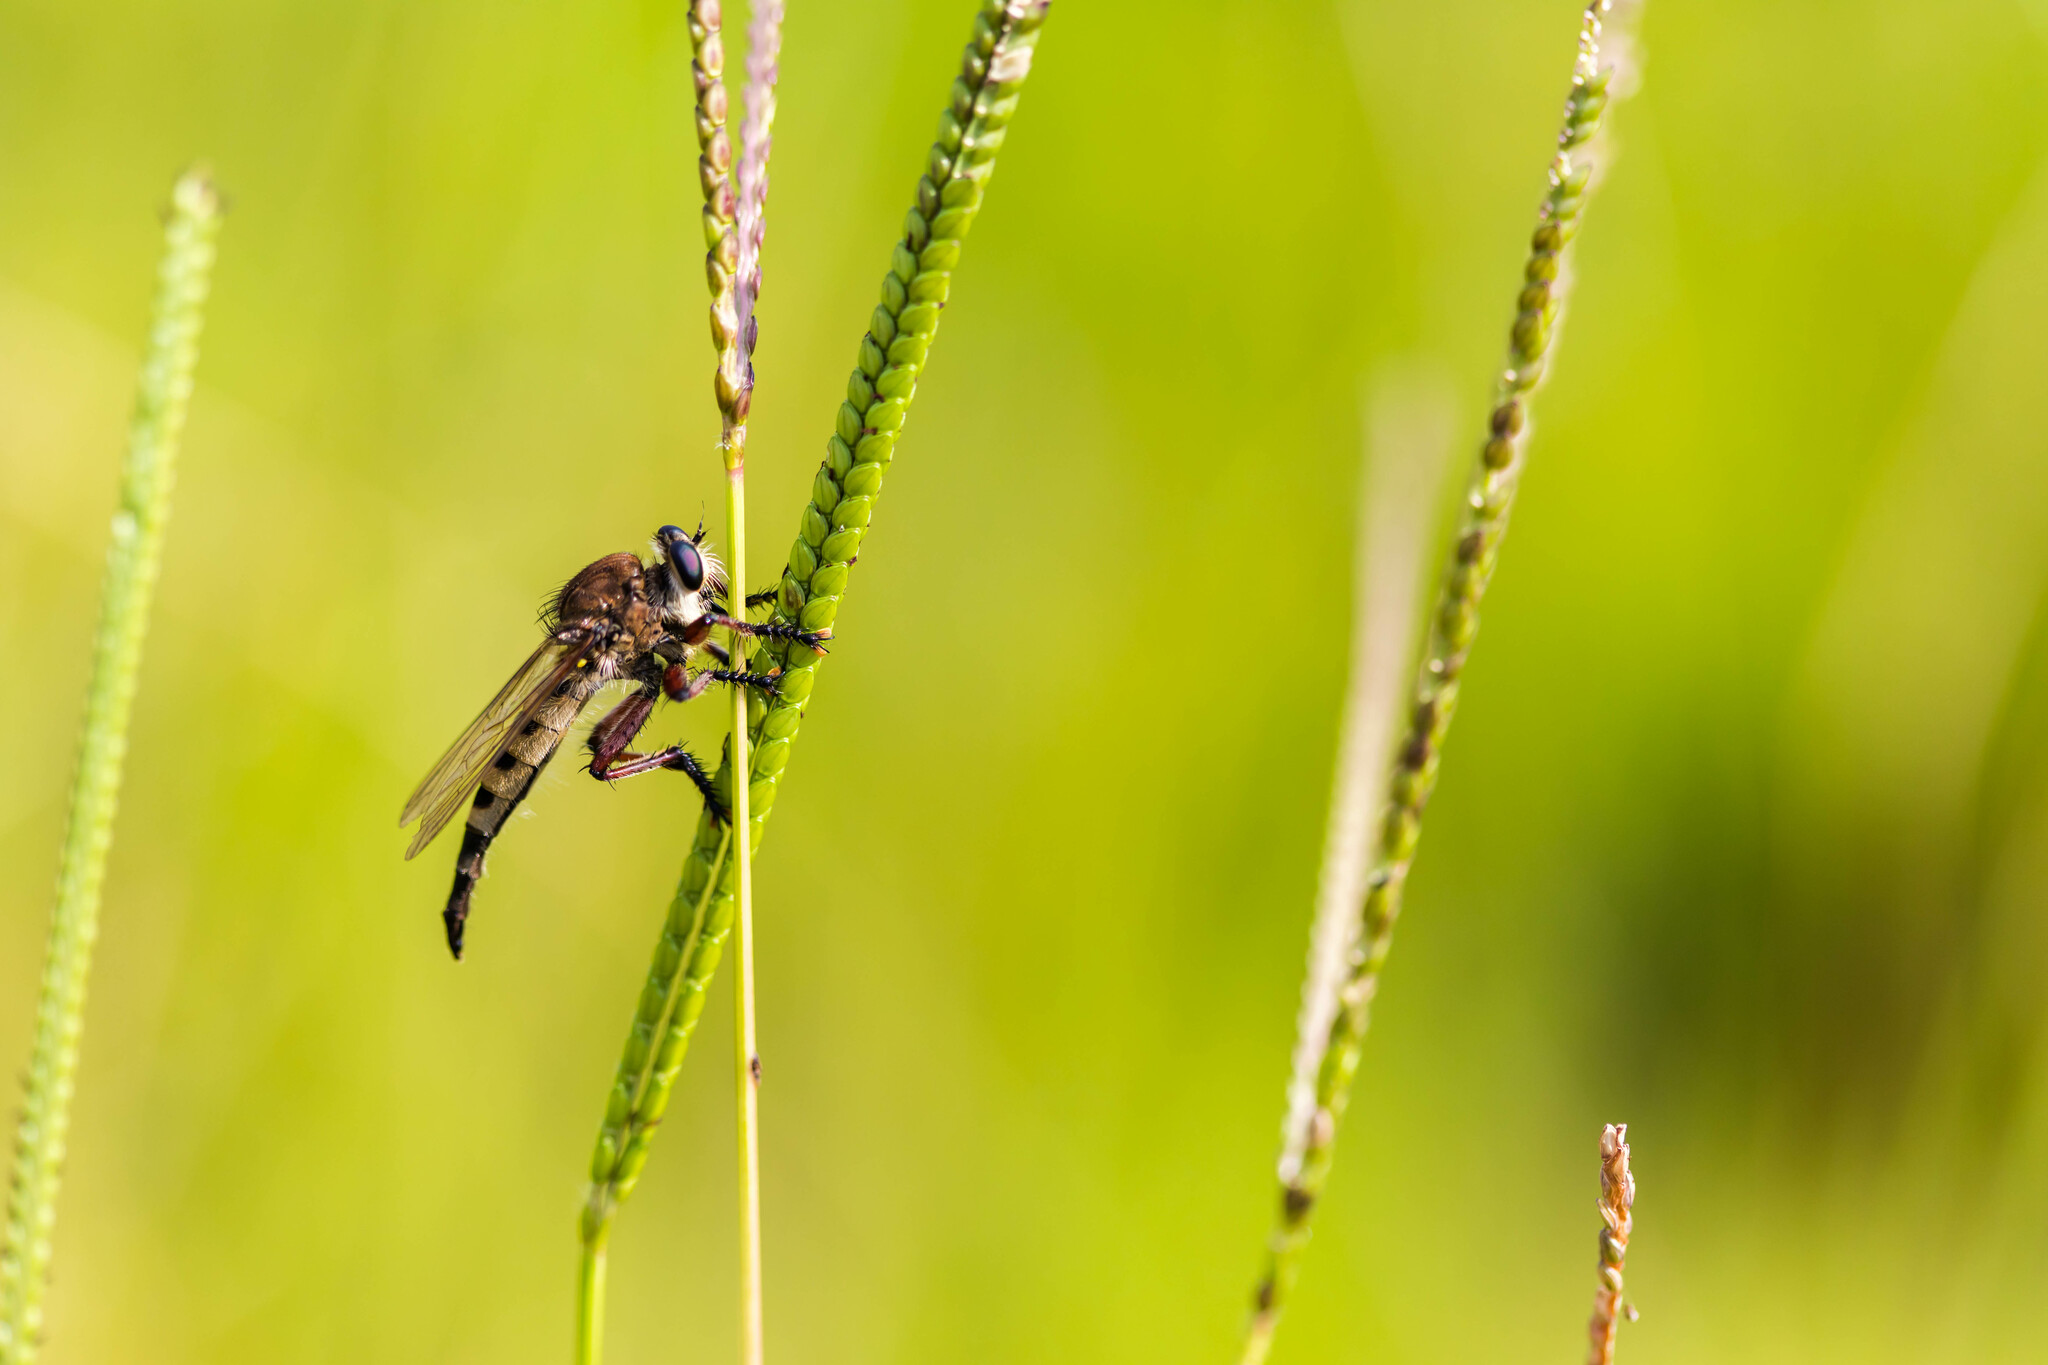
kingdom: Animalia
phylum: Arthropoda
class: Insecta
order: Diptera
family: Asilidae
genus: Promachus
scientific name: Promachus hinei
